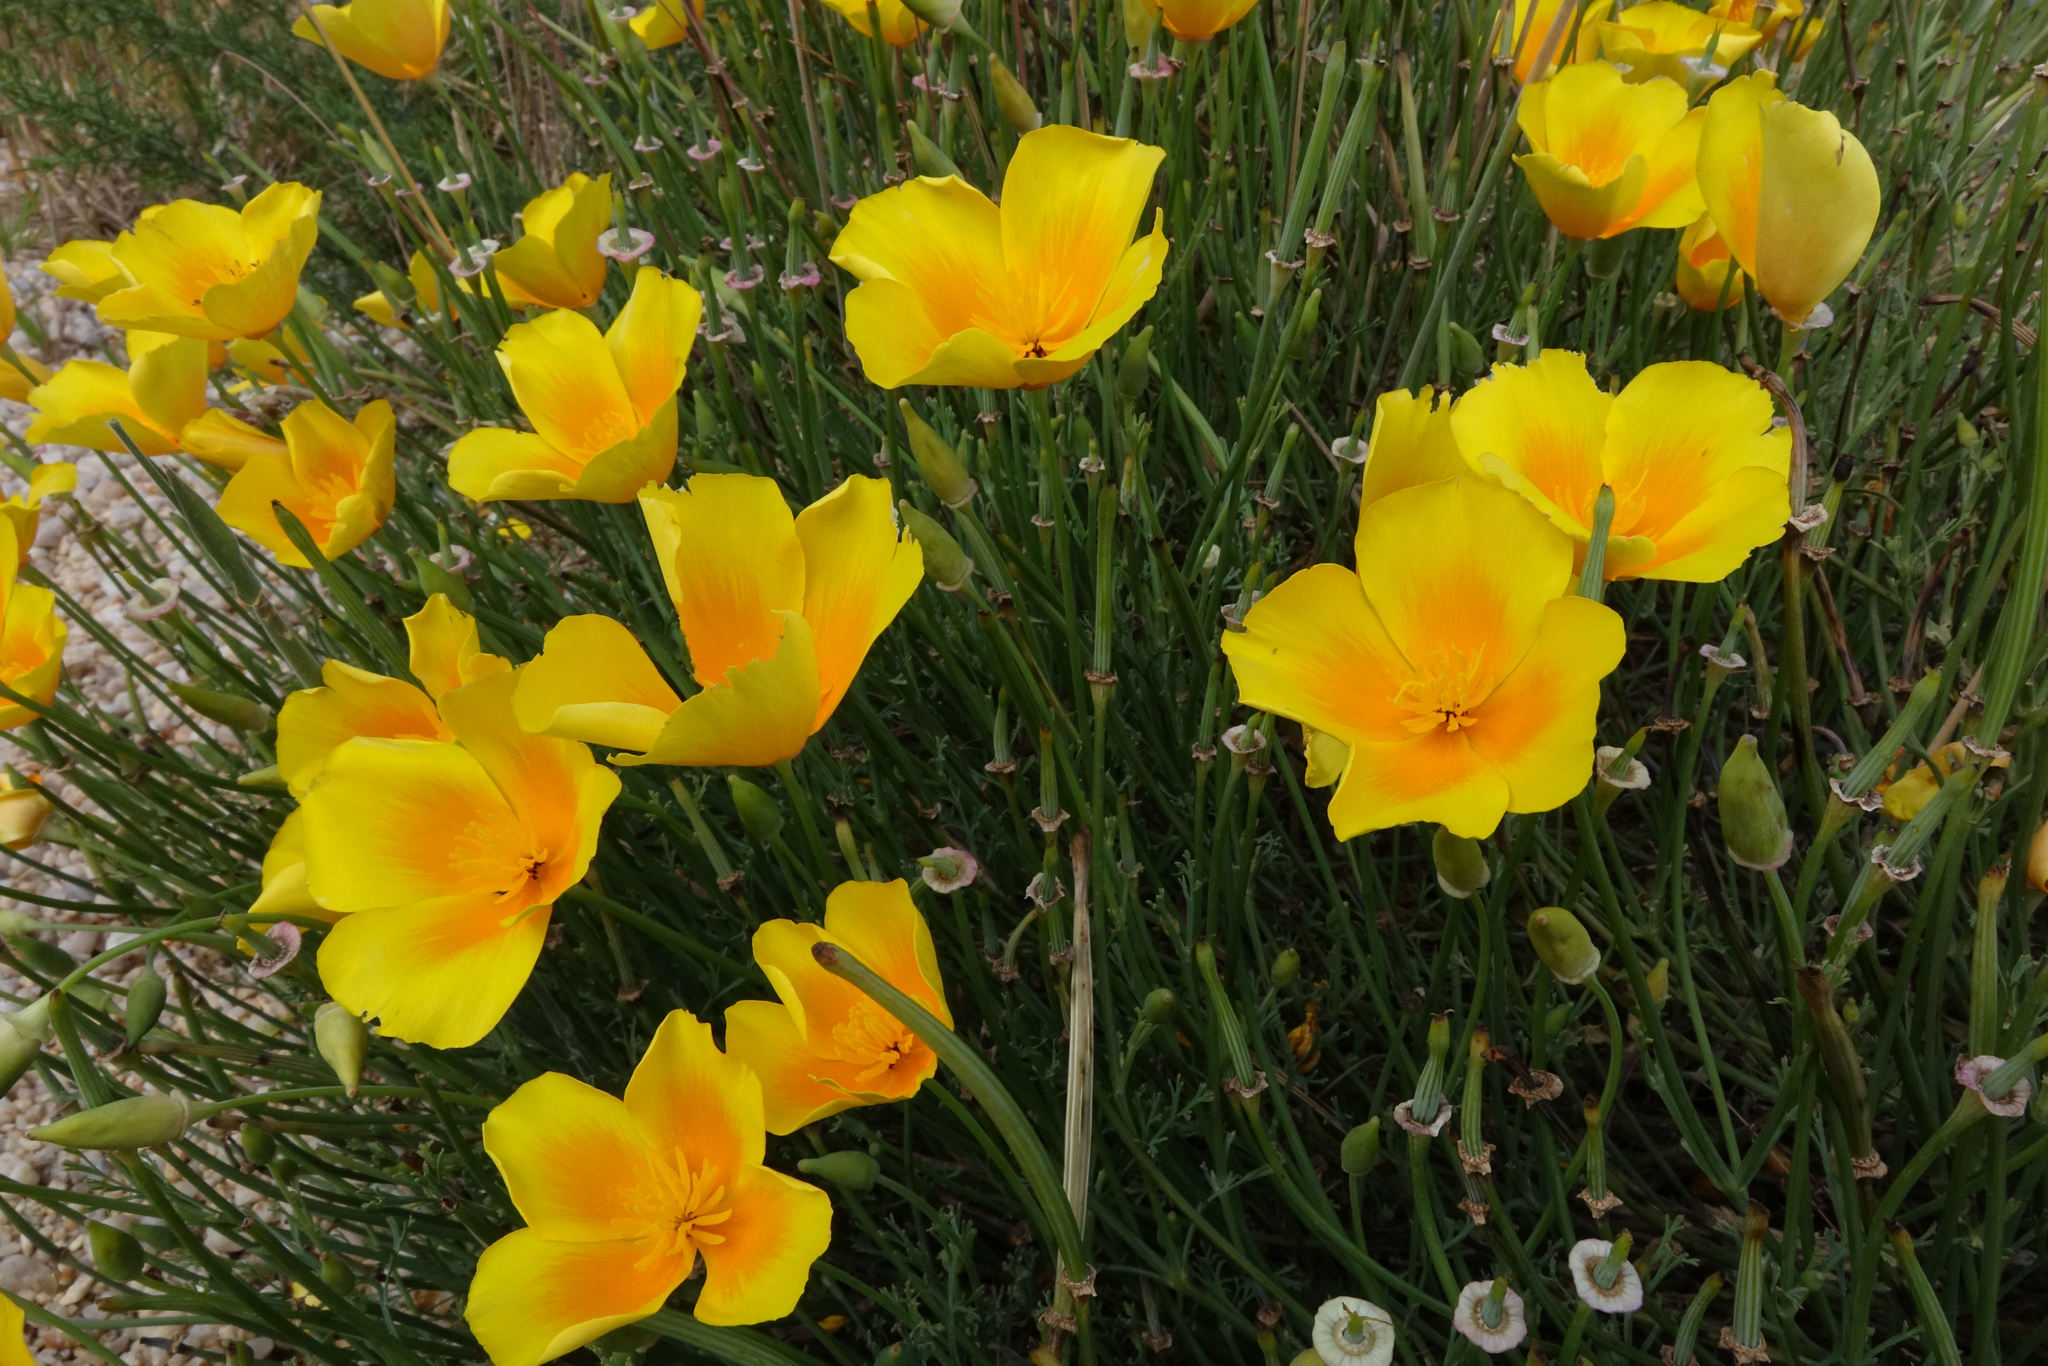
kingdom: Plantae
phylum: Tracheophyta
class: Magnoliopsida
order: Ranunculales
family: Papaveraceae
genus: Eschscholzia
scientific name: Eschscholzia californica
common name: California poppy
